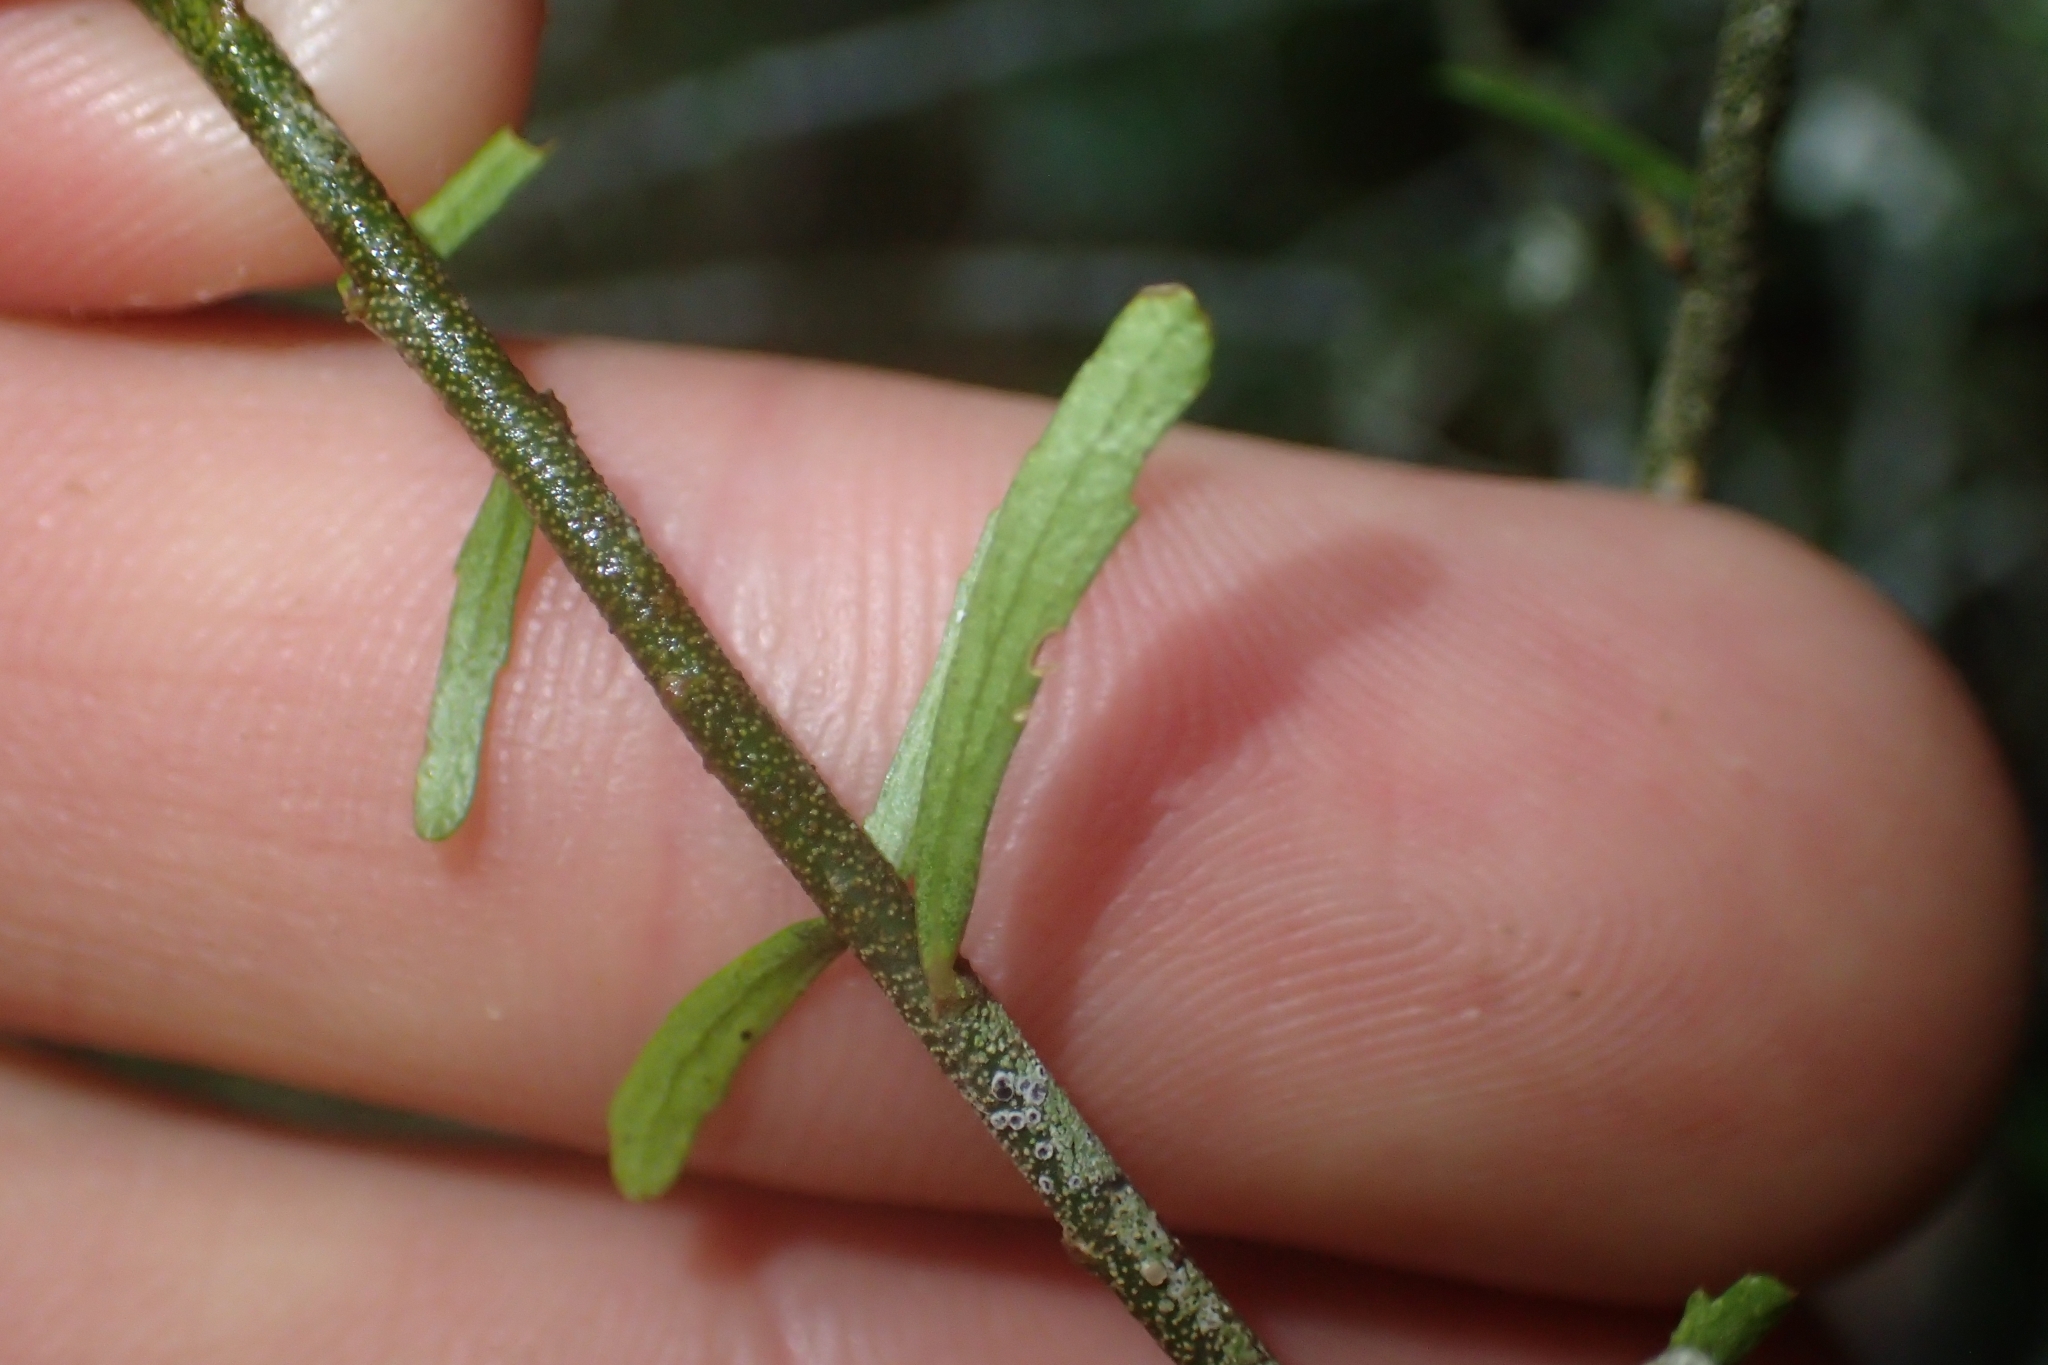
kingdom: Plantae
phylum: Tracheophyta
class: Magnoliopsida
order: Malpighiales
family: Violaceae
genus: Melicytus
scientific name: Melicytus flexuosus
